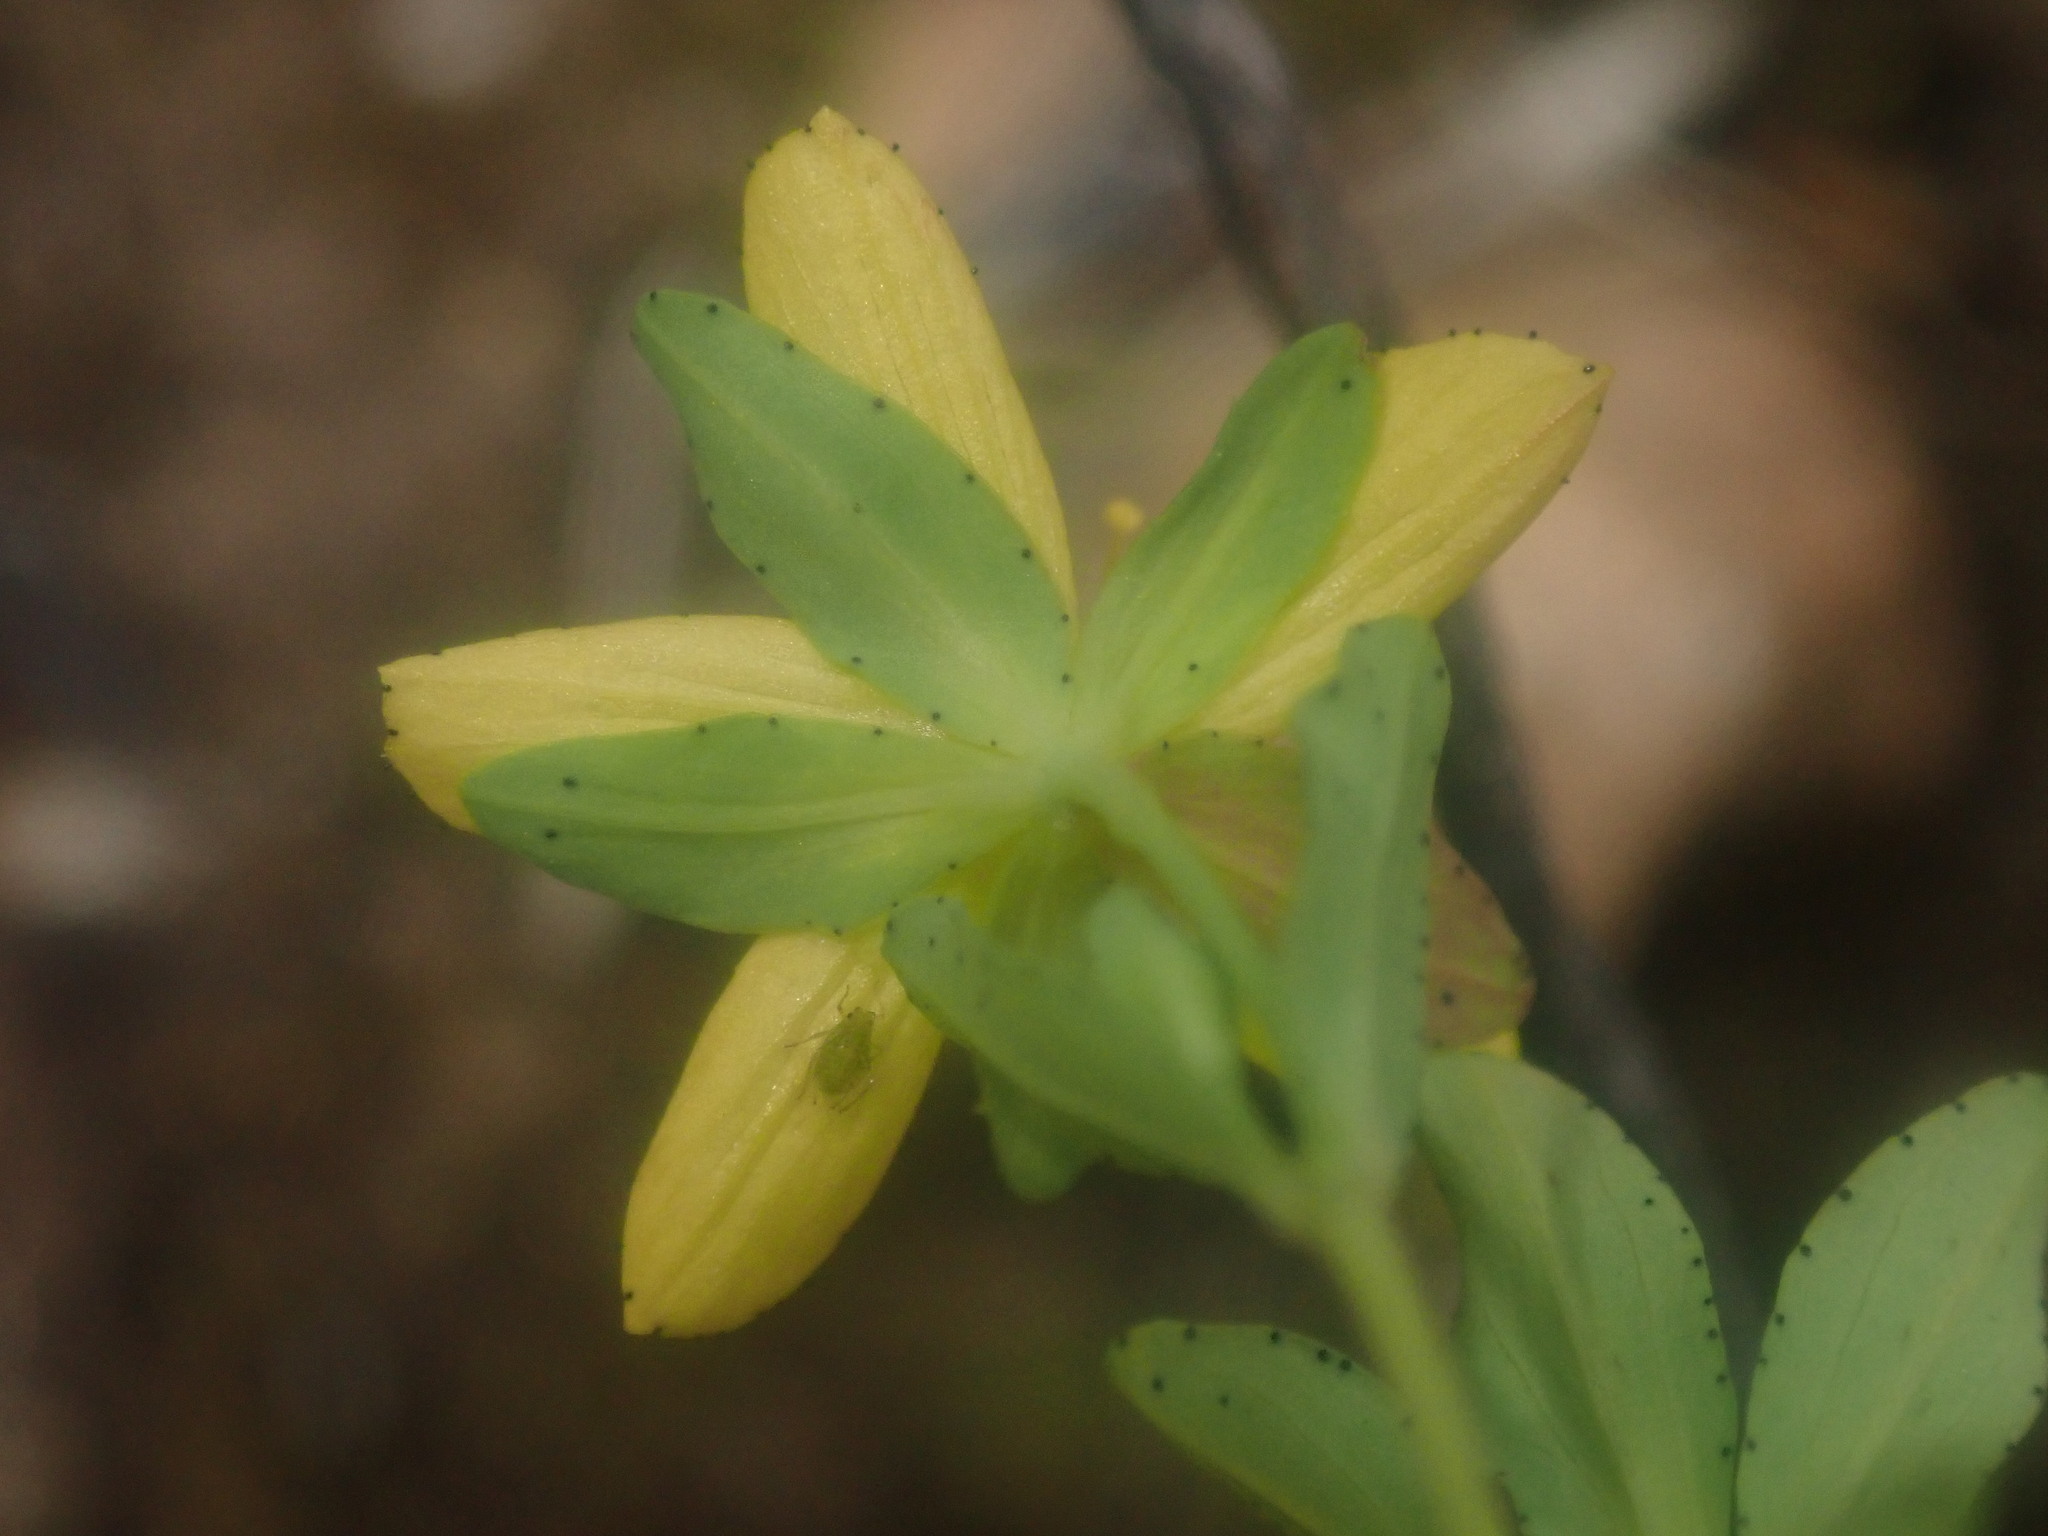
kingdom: Plantae
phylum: Tracheophyta
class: Magnoliopsida
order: Malpighiales
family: Hypericaceae
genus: Hypericum
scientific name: Hypericum humifusum
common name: Trailing st. john's-wort
